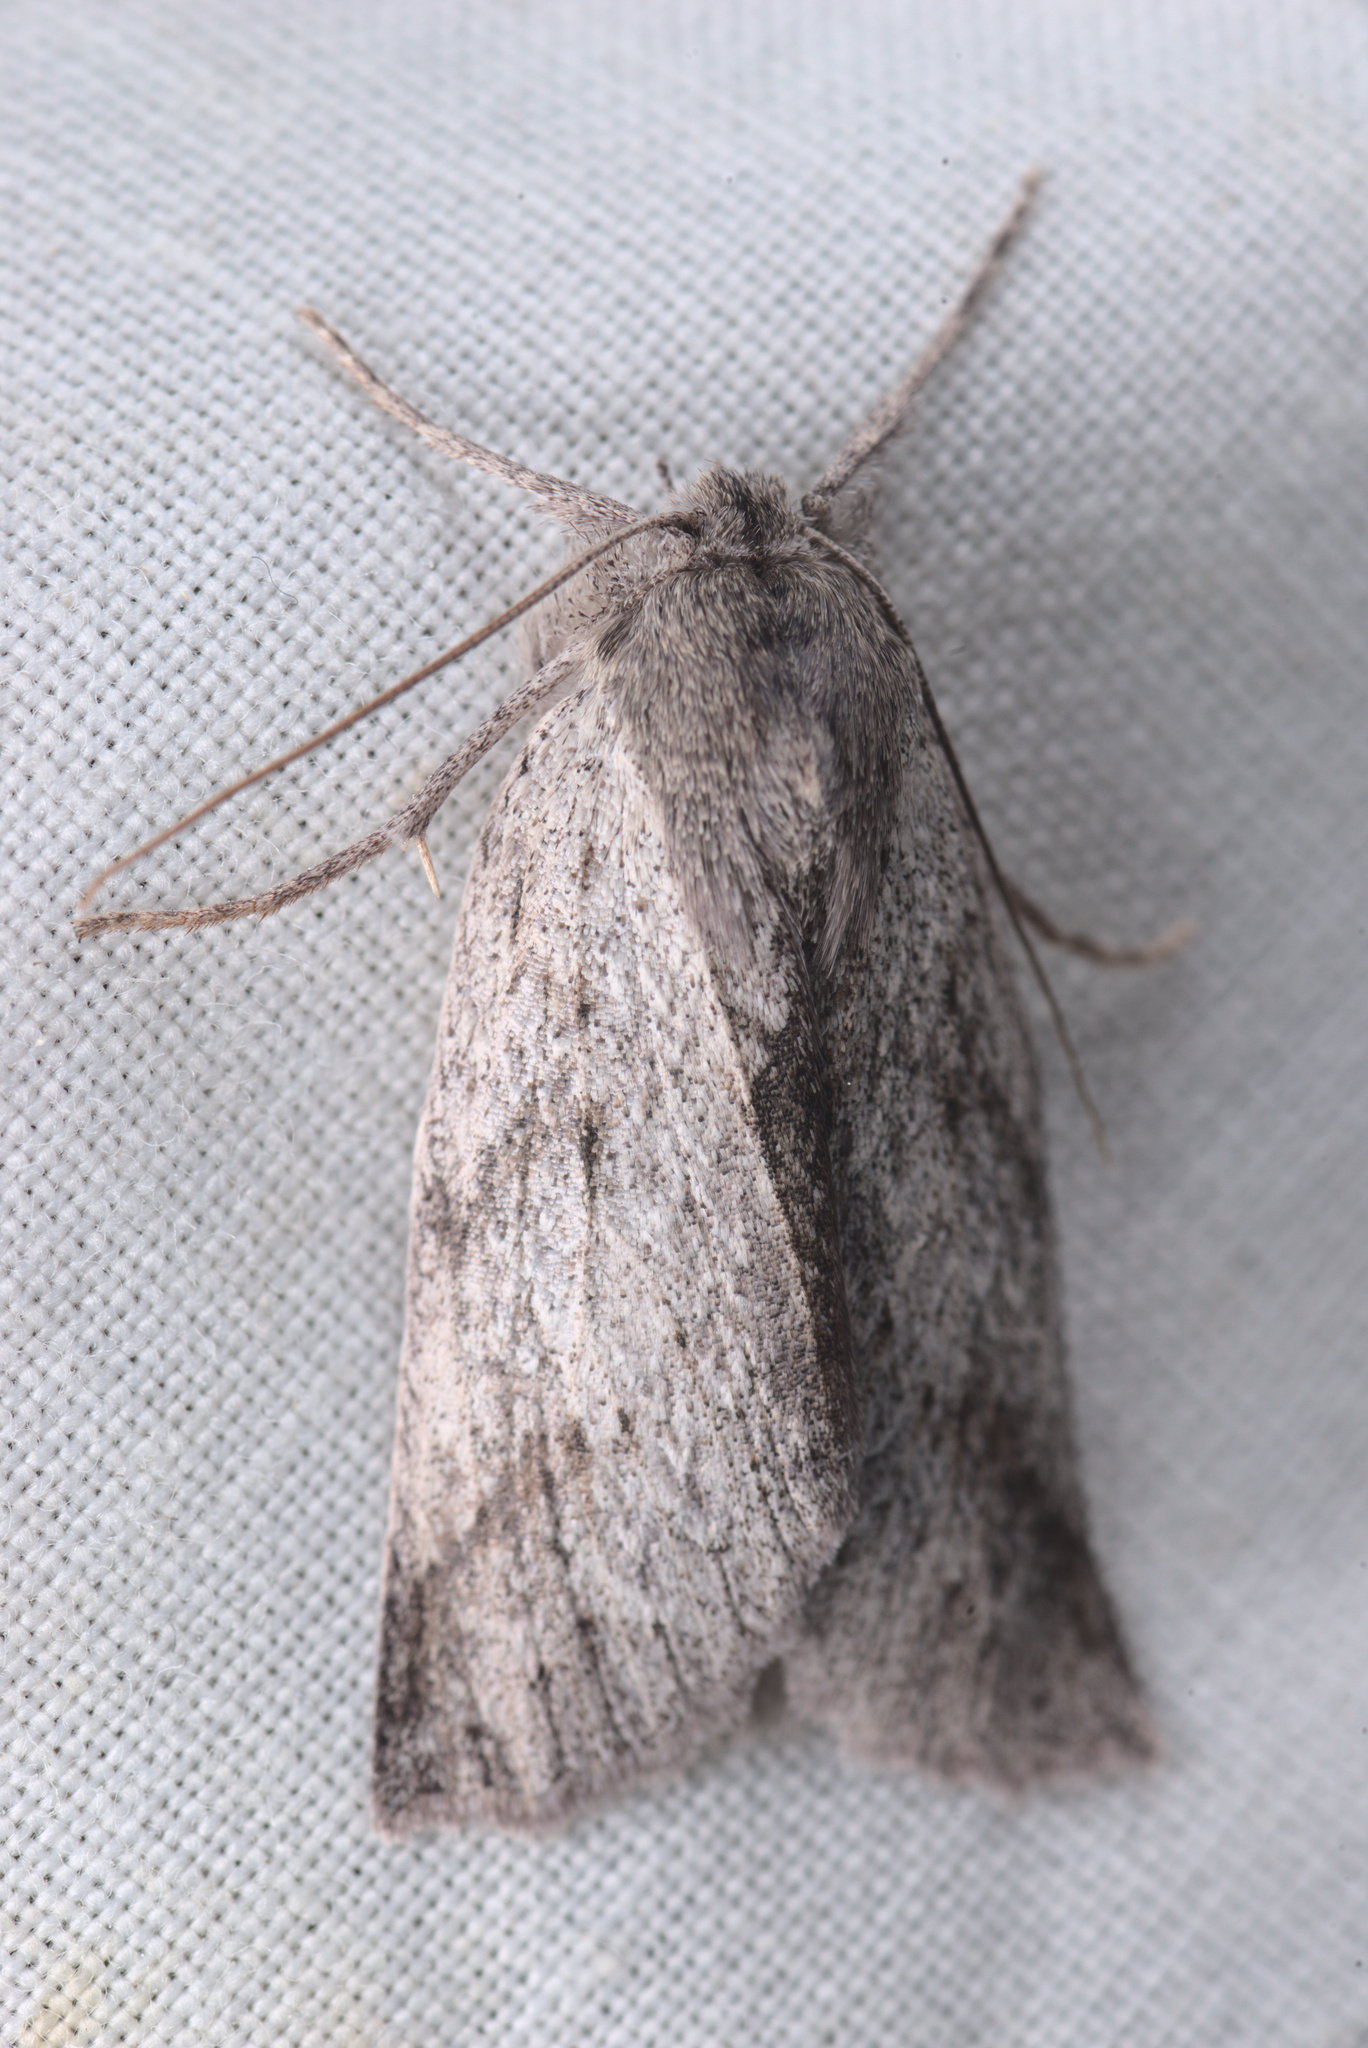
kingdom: Animalia
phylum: Arthropoda
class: Insecta
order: Lepidoptera
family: Geometridae
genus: Declana
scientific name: Declana leptomera
